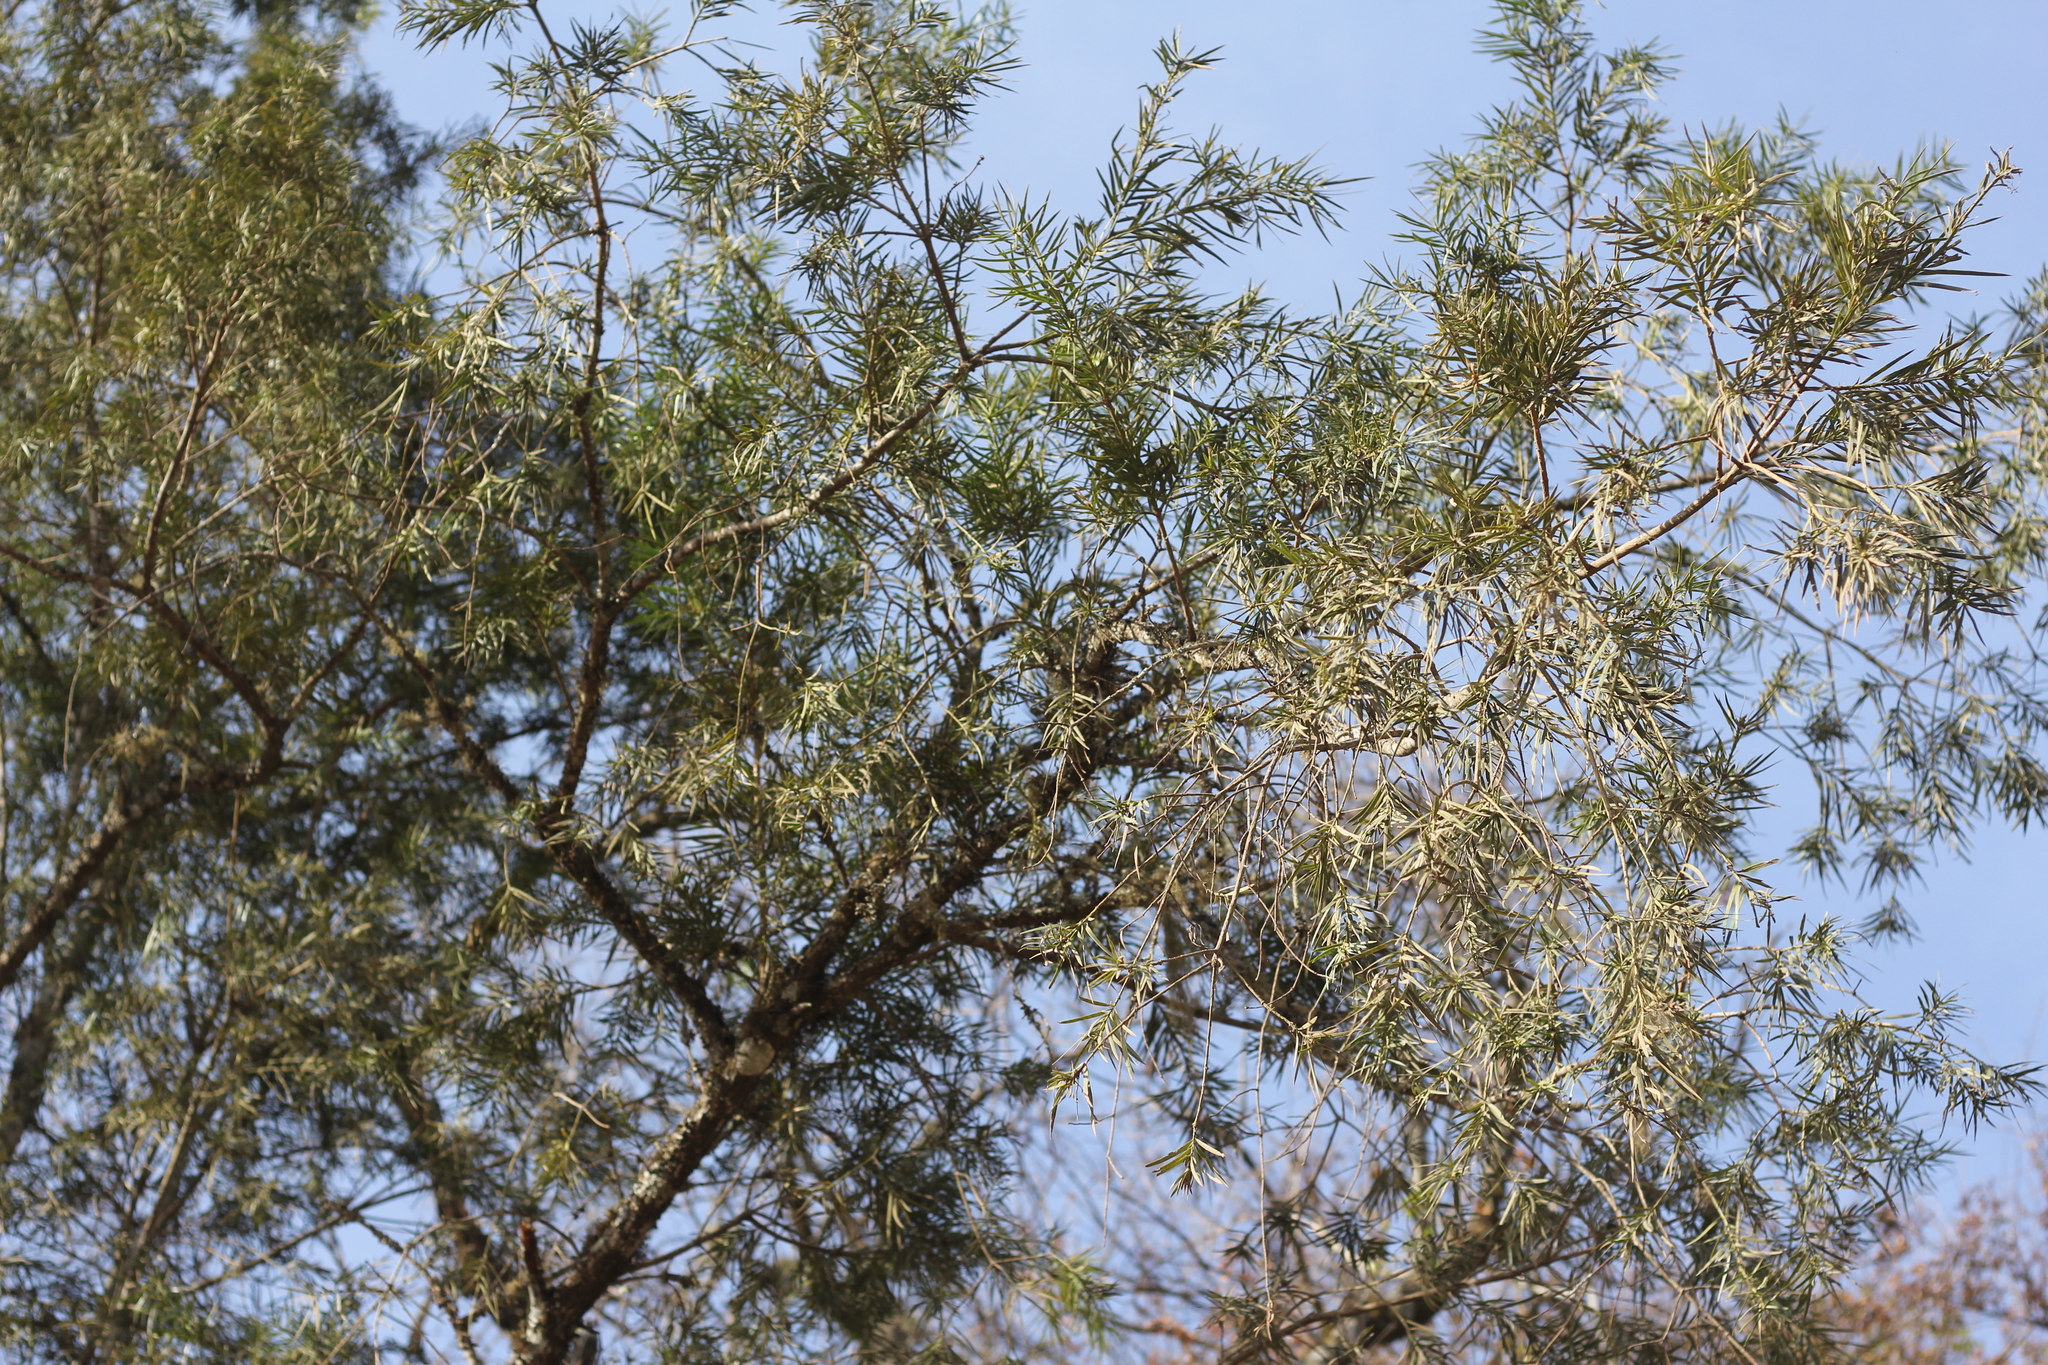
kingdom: Plantae
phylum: Tracheophyta
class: Pinopsida
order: Pinales
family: Podocarpaceae
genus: Podocarpus
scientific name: Podocarpus parlatorei
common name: Pino blanco
